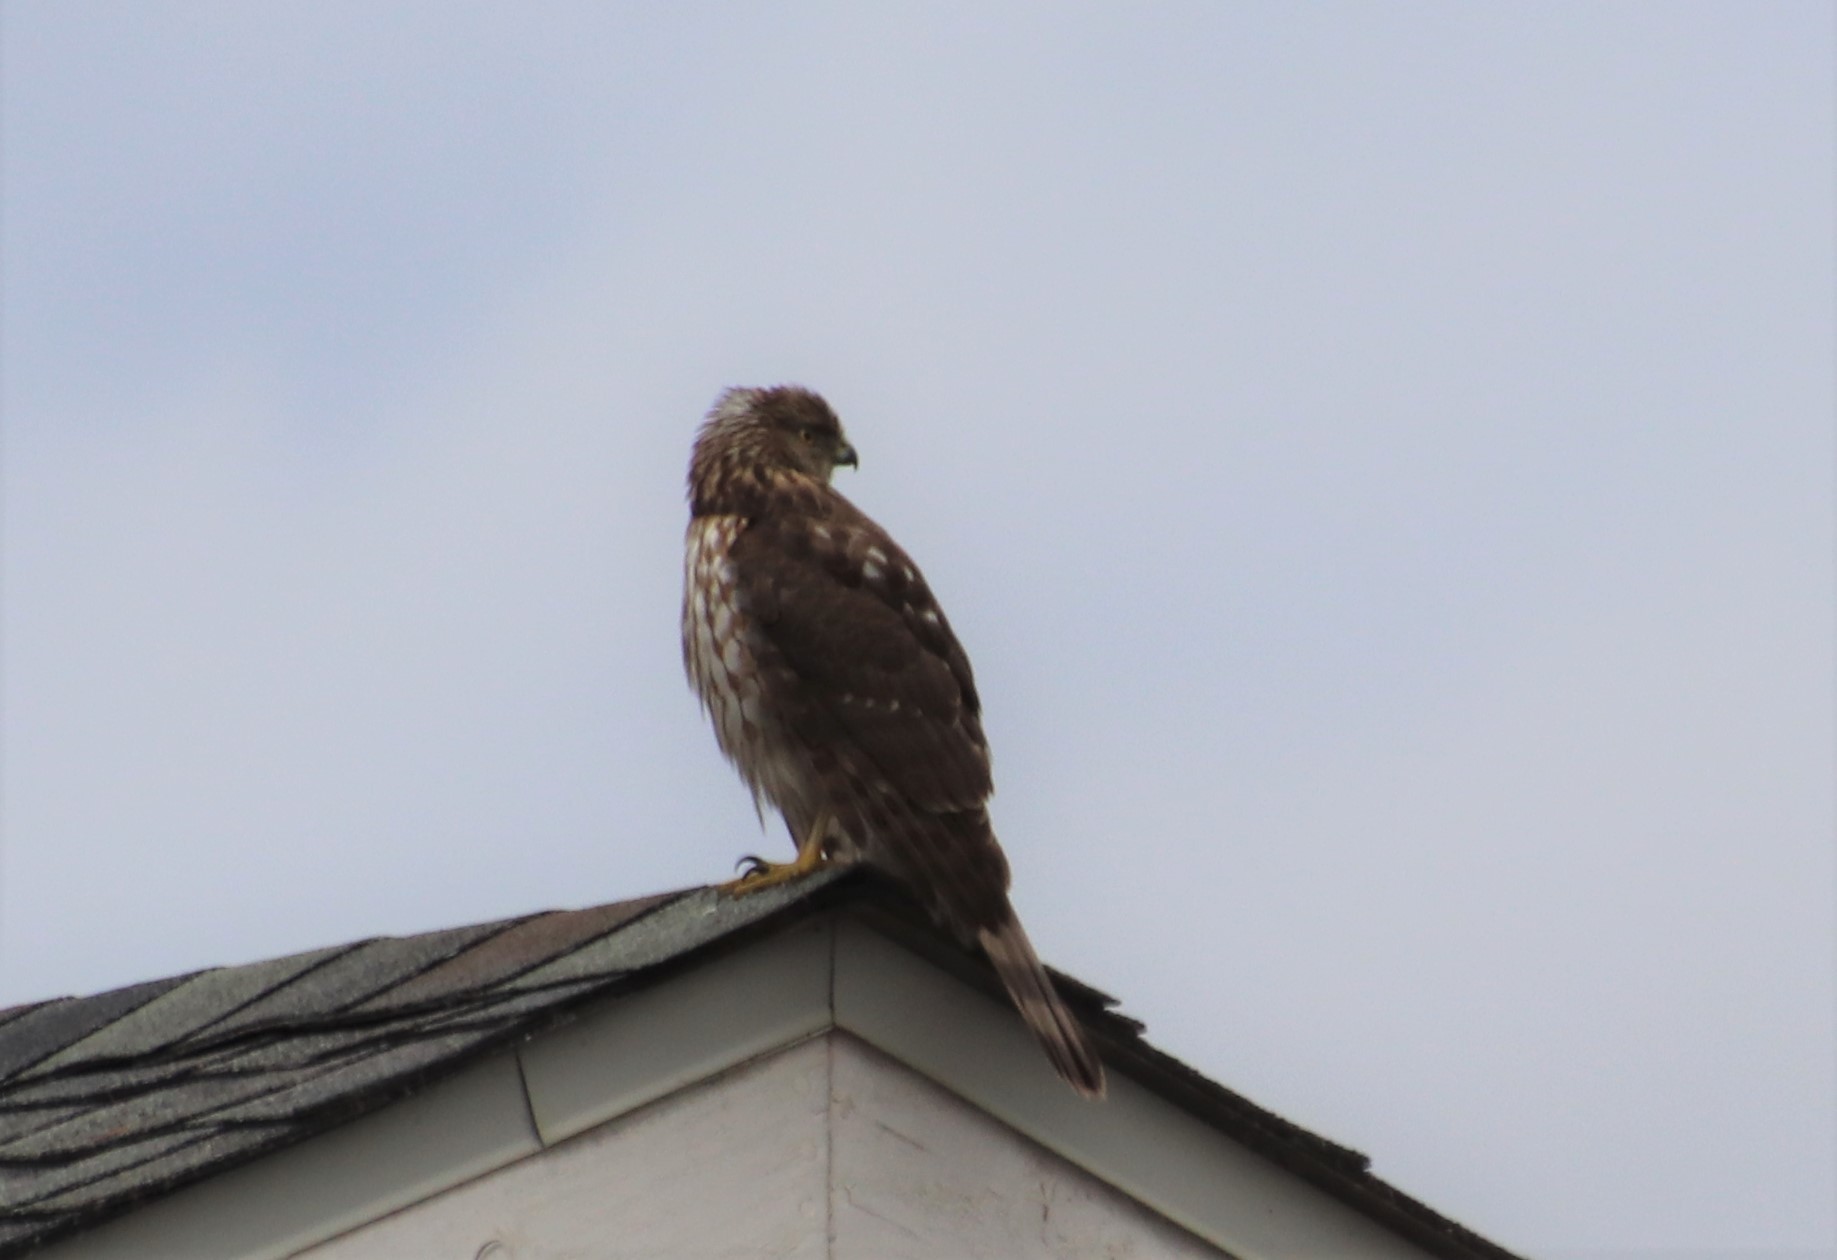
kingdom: Animalia
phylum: Chordata
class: Aves
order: Accipitriformes
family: Accipitridae
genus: Accipiter
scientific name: Accipiter cooperii
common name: Cooper's hawk
